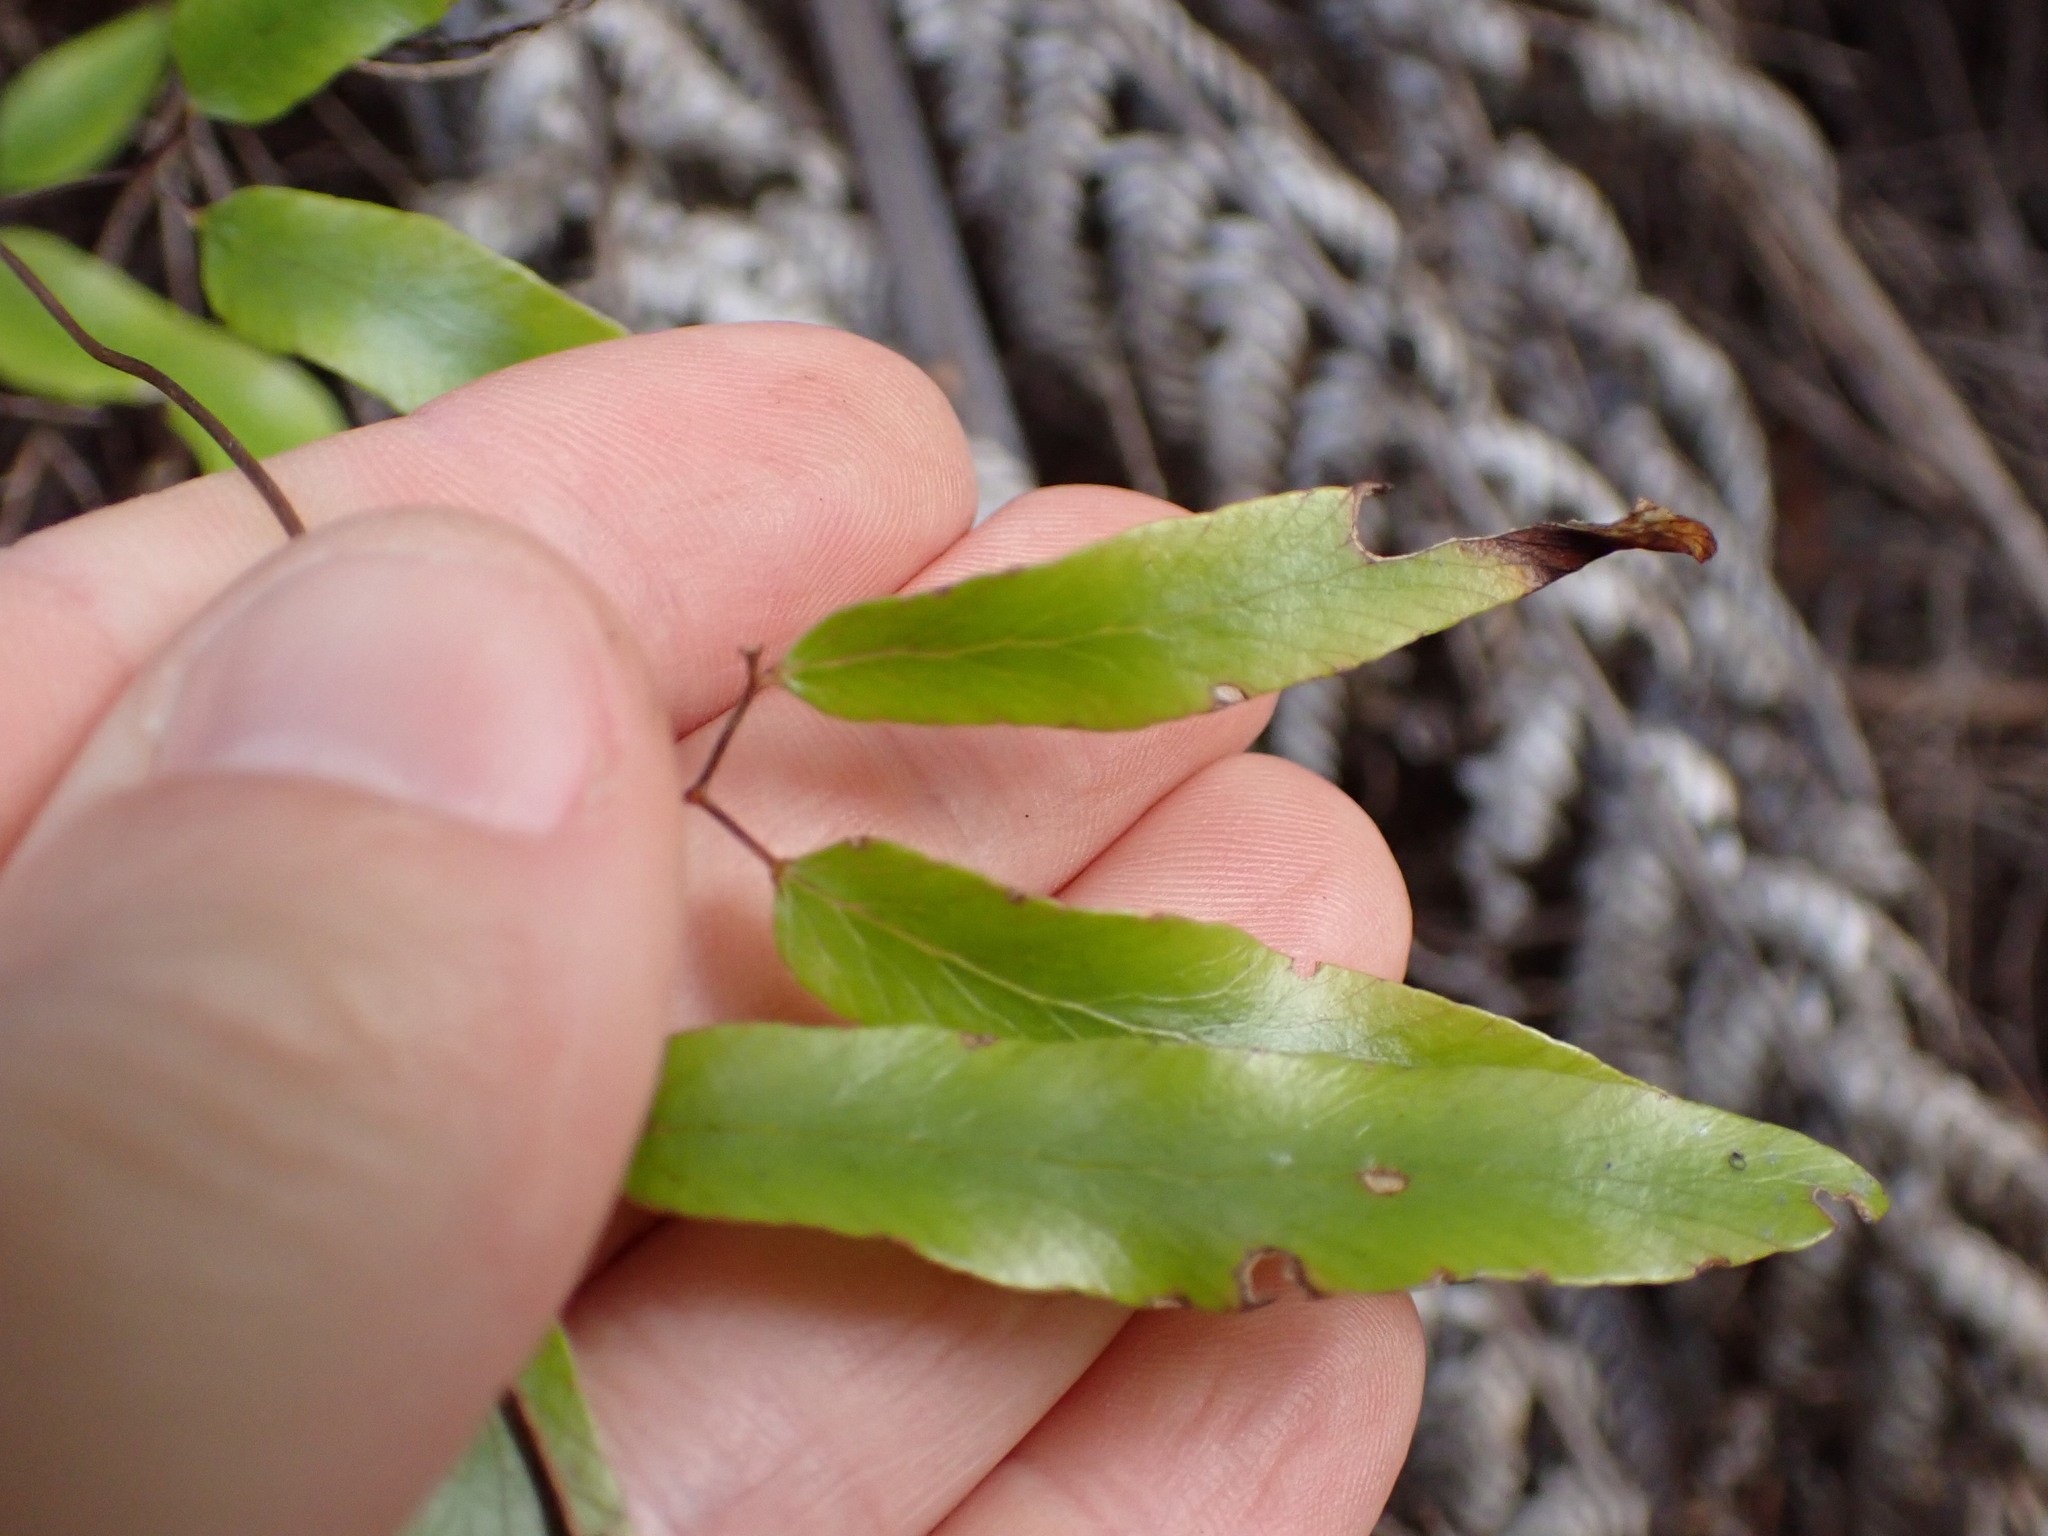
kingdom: Plantae
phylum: Tracheophyta
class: Polypodiopsida
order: Schizaeales
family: Lygodiaceae
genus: Lygodium
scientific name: Lygodium articulatum
